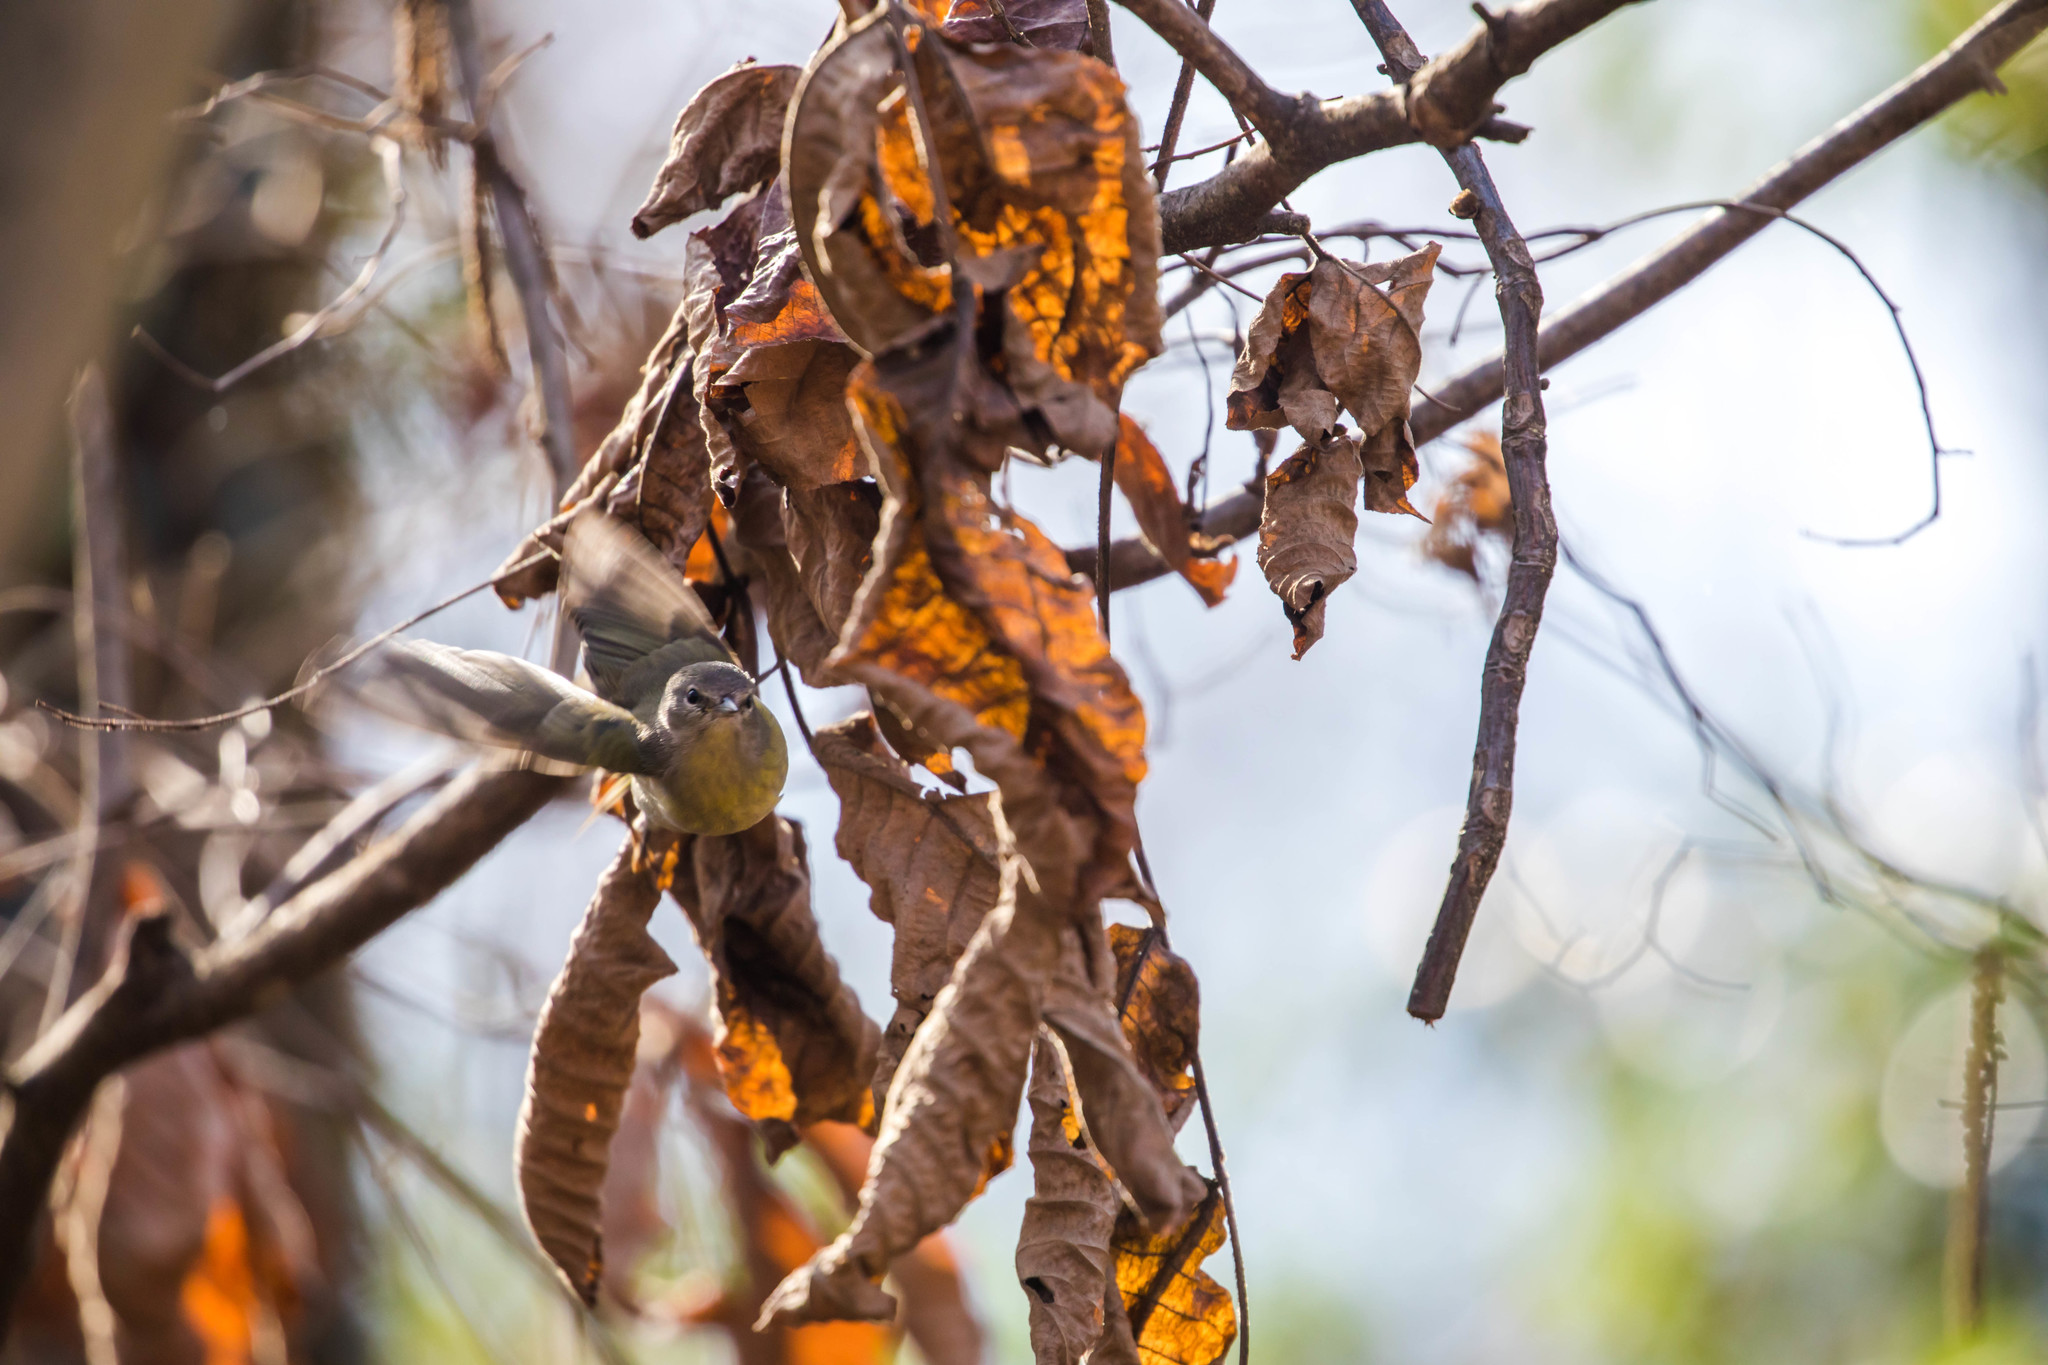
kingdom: Animalia
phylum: Chordata
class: Aves
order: Passeriformes
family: Parulidae
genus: Leiothlypis
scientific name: Leiothlypis celata
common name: Orange-crowned warbler
